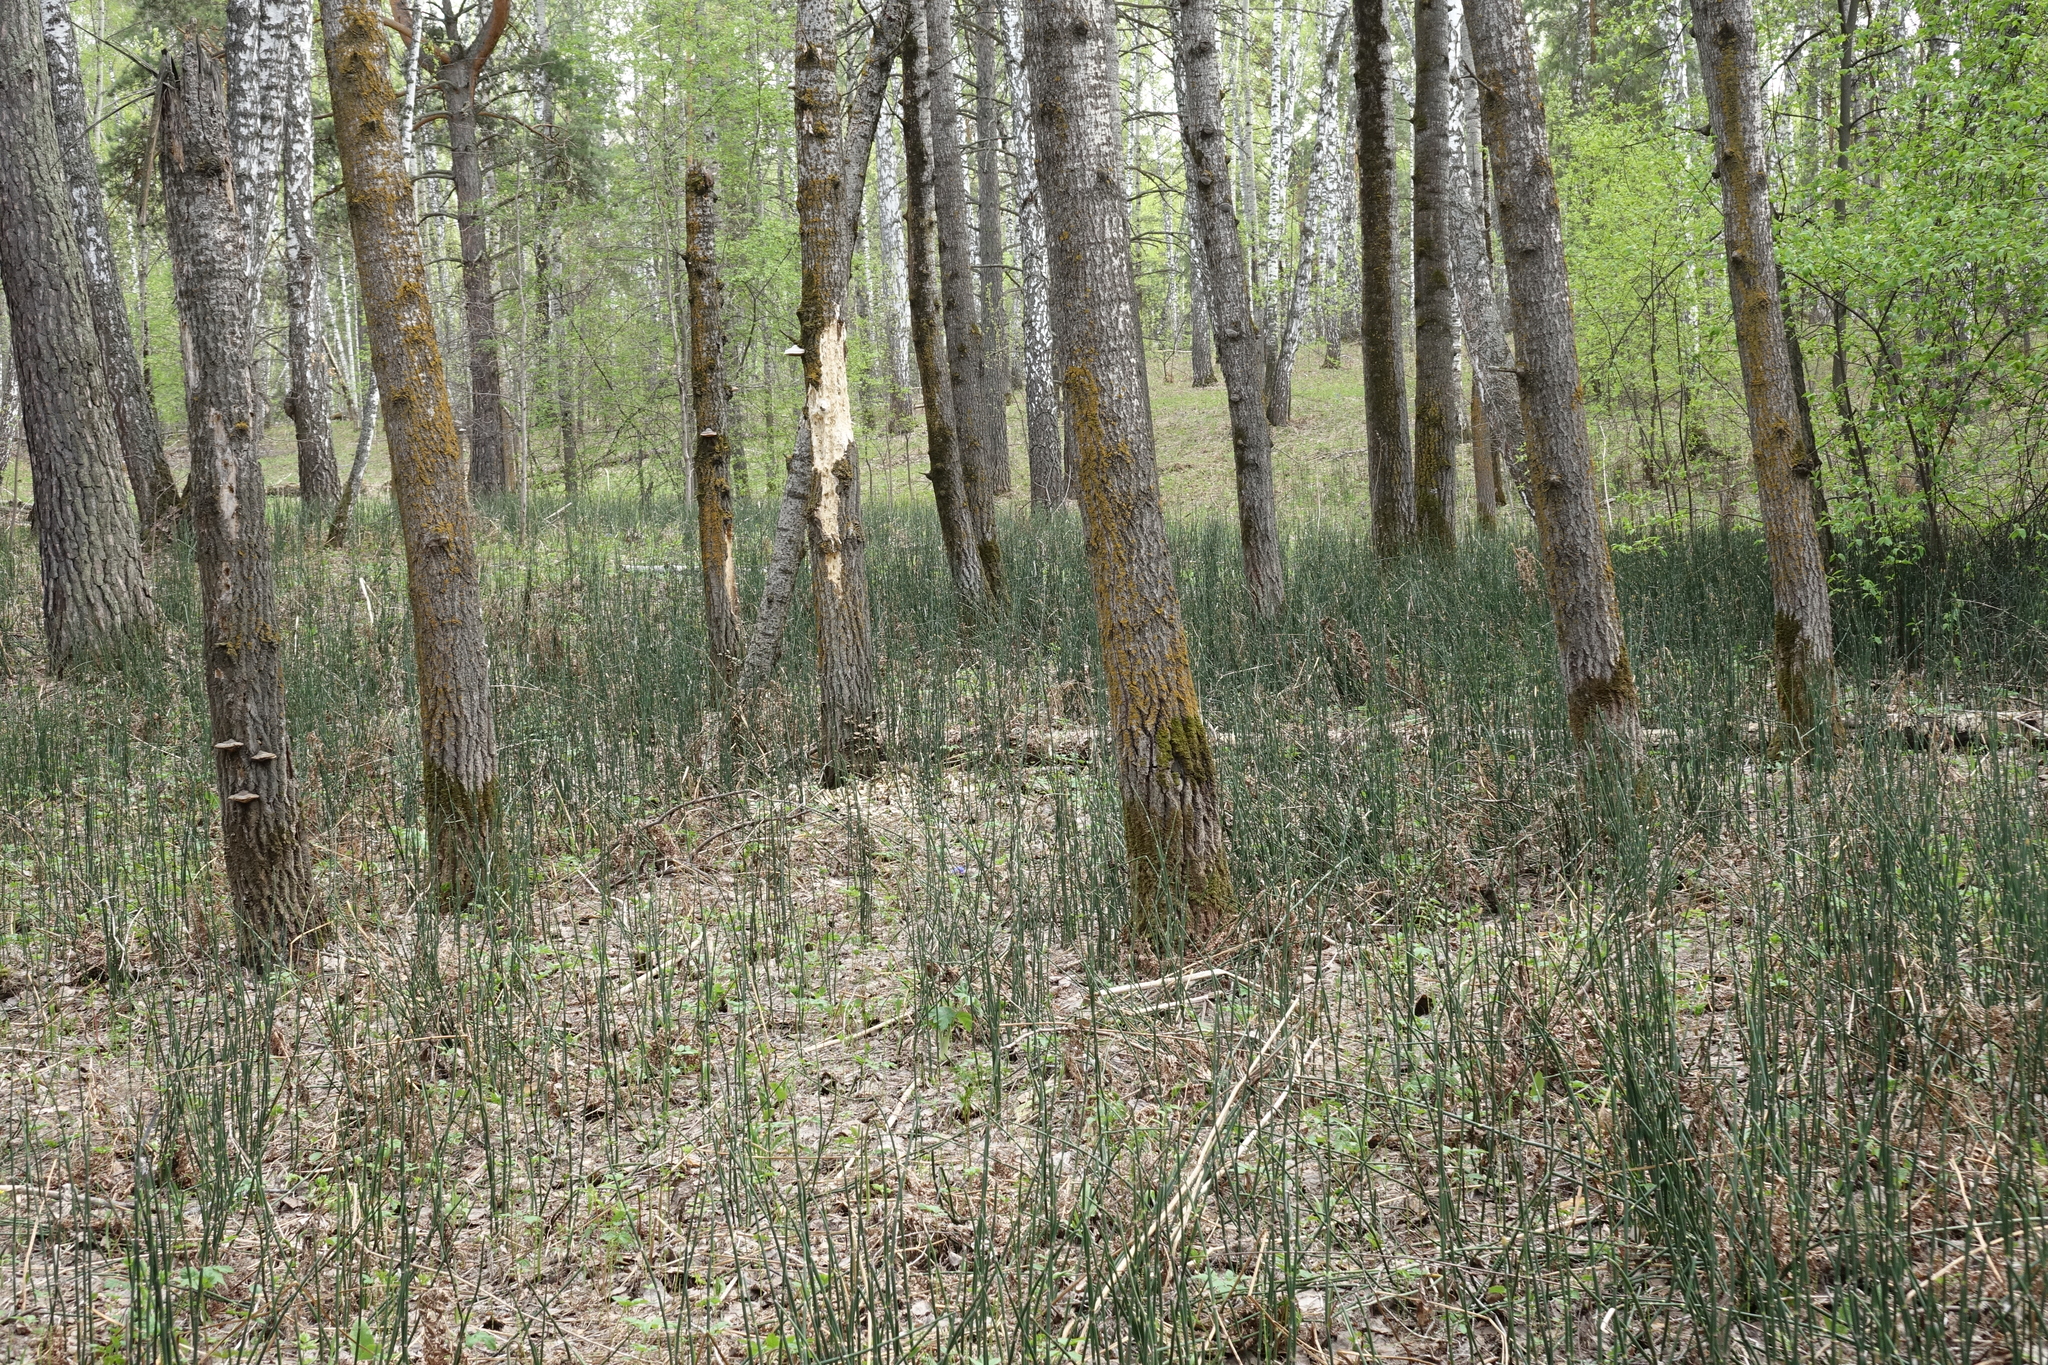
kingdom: Plantae
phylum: Tracheophyta
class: Polypodiopsida
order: Equisetales
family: Equisetaceae
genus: Equisetum
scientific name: Equisetum hyemale
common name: Rough horsetail
